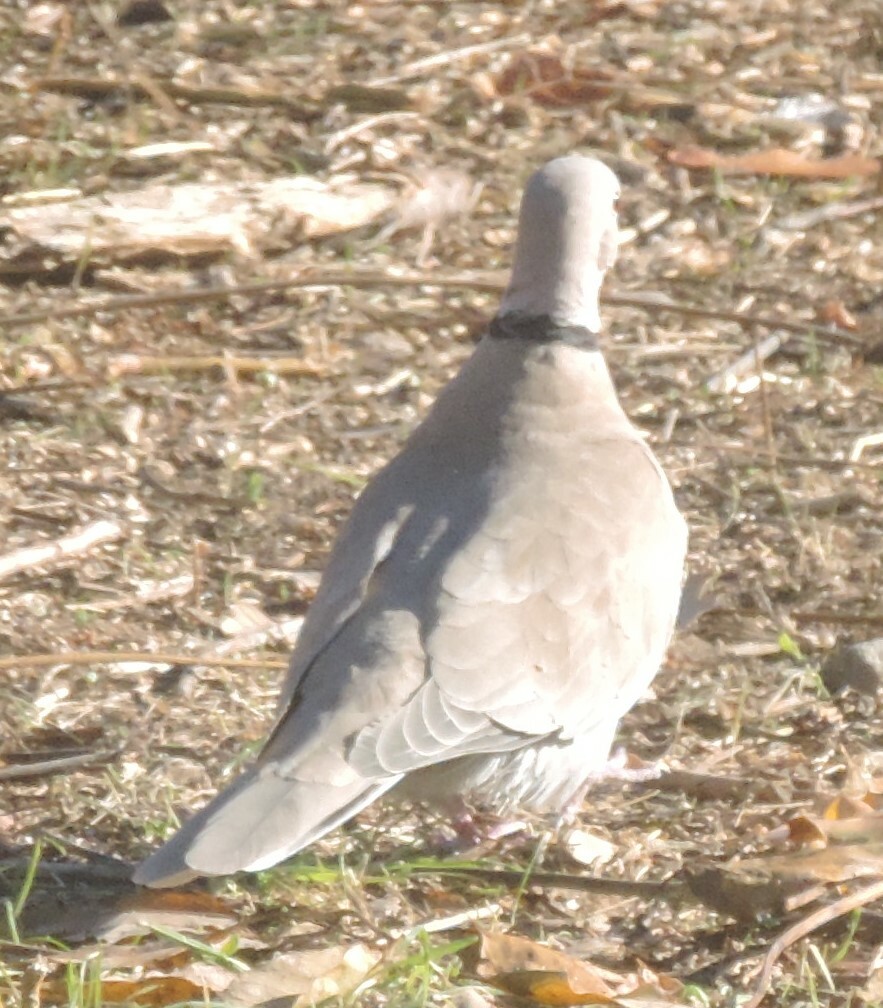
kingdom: Animalia
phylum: Chordata
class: Aves
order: Columbiformes
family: Columbidae
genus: Streptopelia
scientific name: Streptopelia decaocto
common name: Eurasian collared dove
